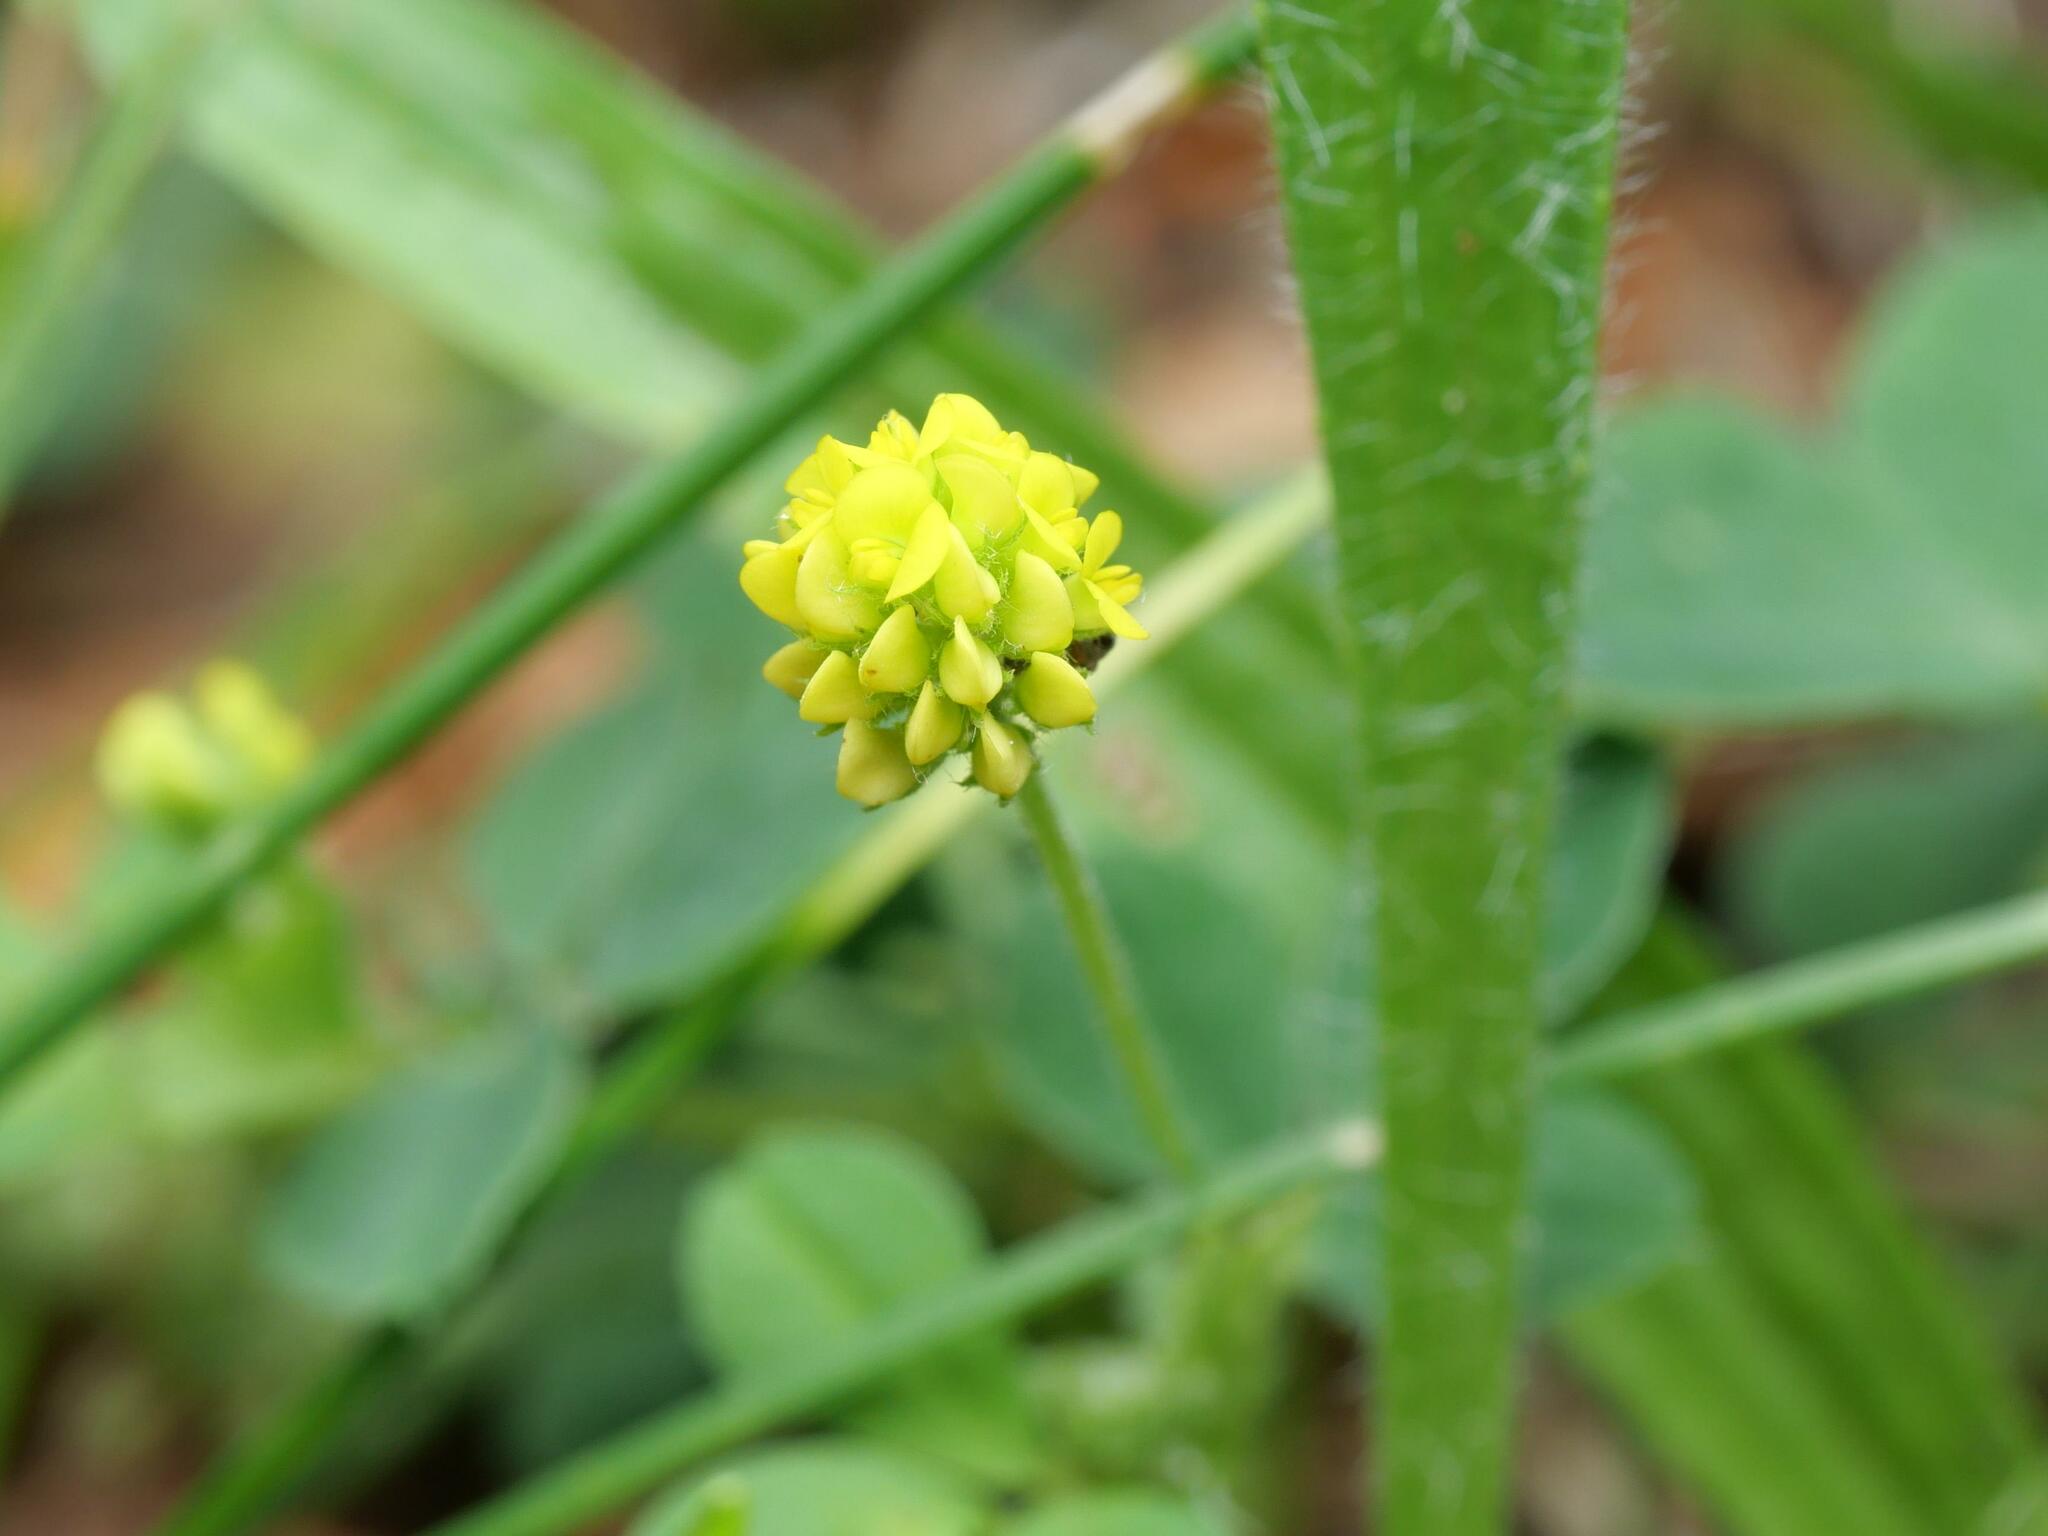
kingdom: Plantae
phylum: Tracheophyta
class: Magnoliopsida
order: Fabales
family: Fabaceae
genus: Medicago
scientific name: Medicago lupulina
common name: Black medick
